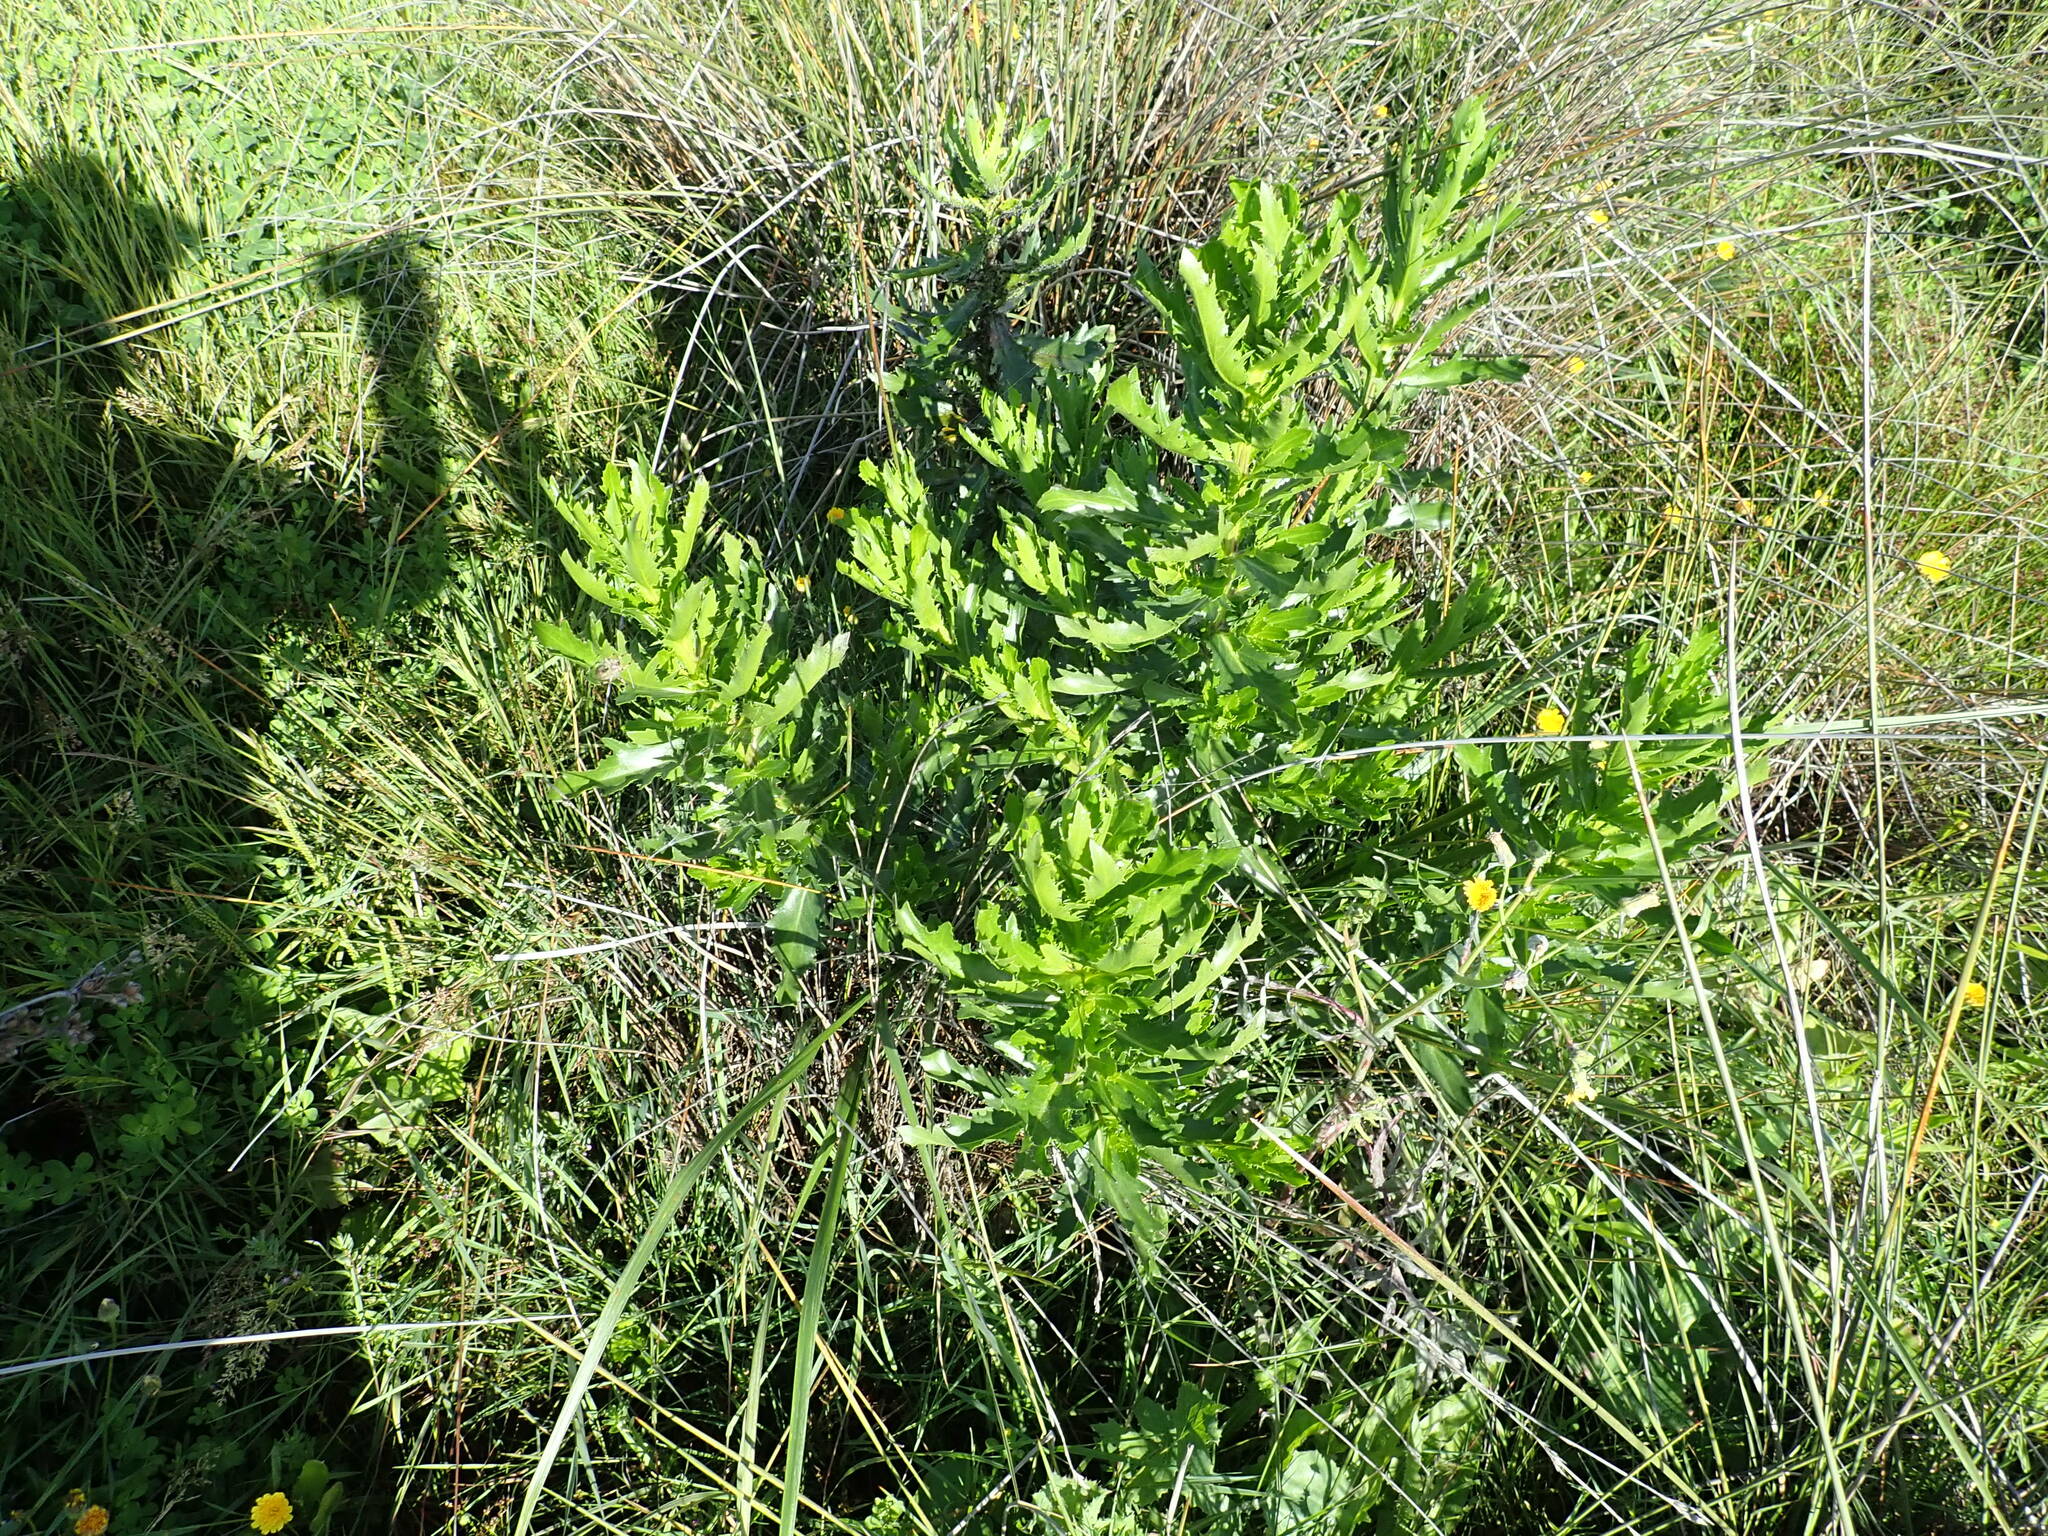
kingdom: Plantae
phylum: Tracheophyta
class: Magnoliopsida
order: Asterales
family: Asteraceae
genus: Senecio
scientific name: Senecio glastifolius
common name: Woad-leaved ragwort
